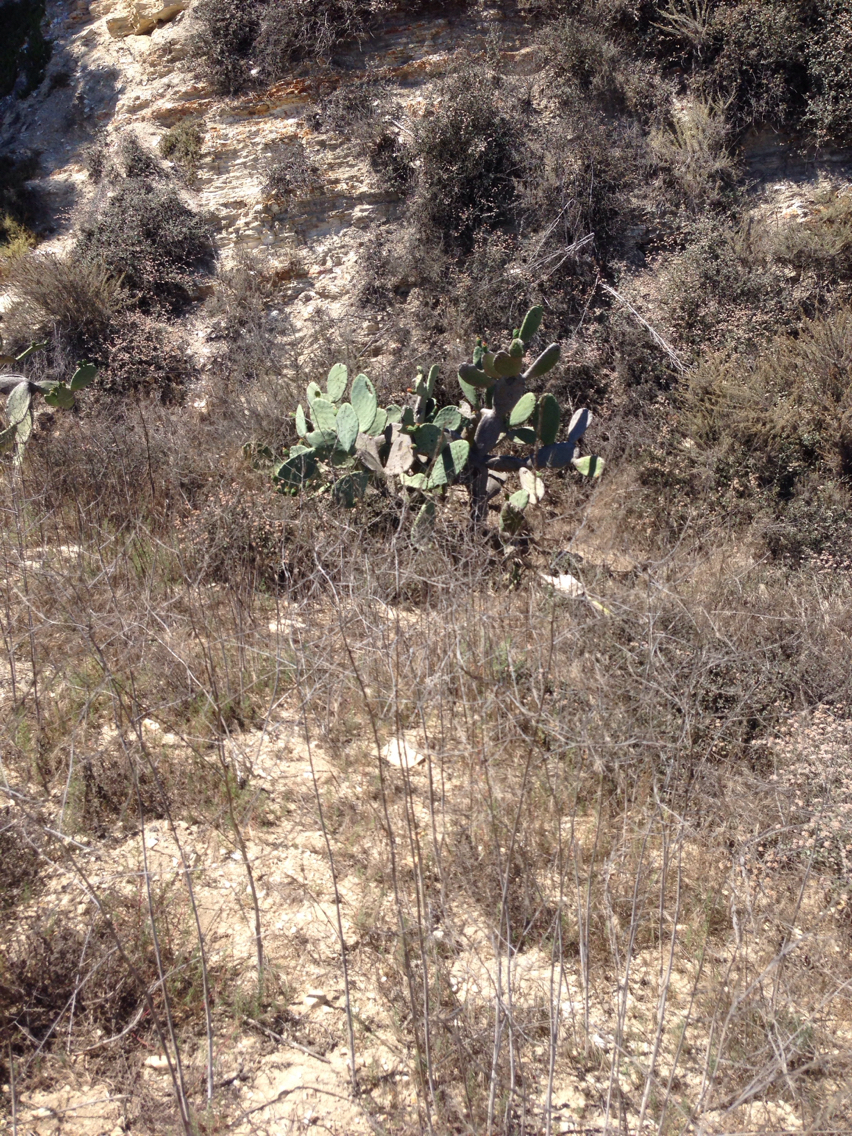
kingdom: Plantae
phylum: Tracheophyta
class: Magnoliopsida
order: Caryophyllales
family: Cactaceae
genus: Opuntia
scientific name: Opuntia ficus-indica
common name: Barbary fig
